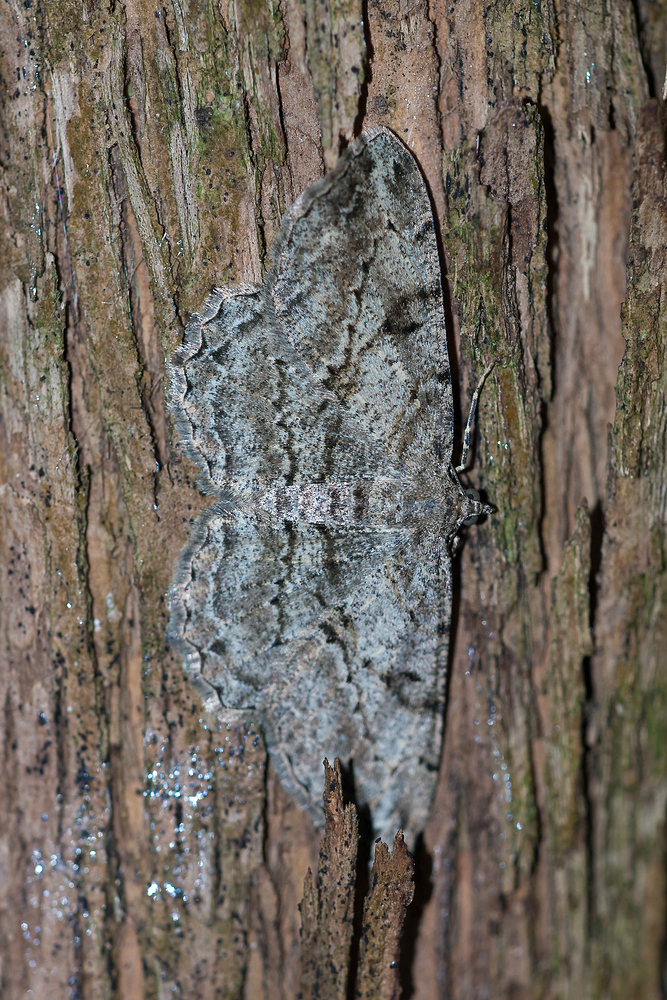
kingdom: Animalia
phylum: Arthropoda
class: Insecta
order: Lepidoptera
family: Geometridae
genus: Peribatodes
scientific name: Peribatodes rhomboidaria
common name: Willow beauty
